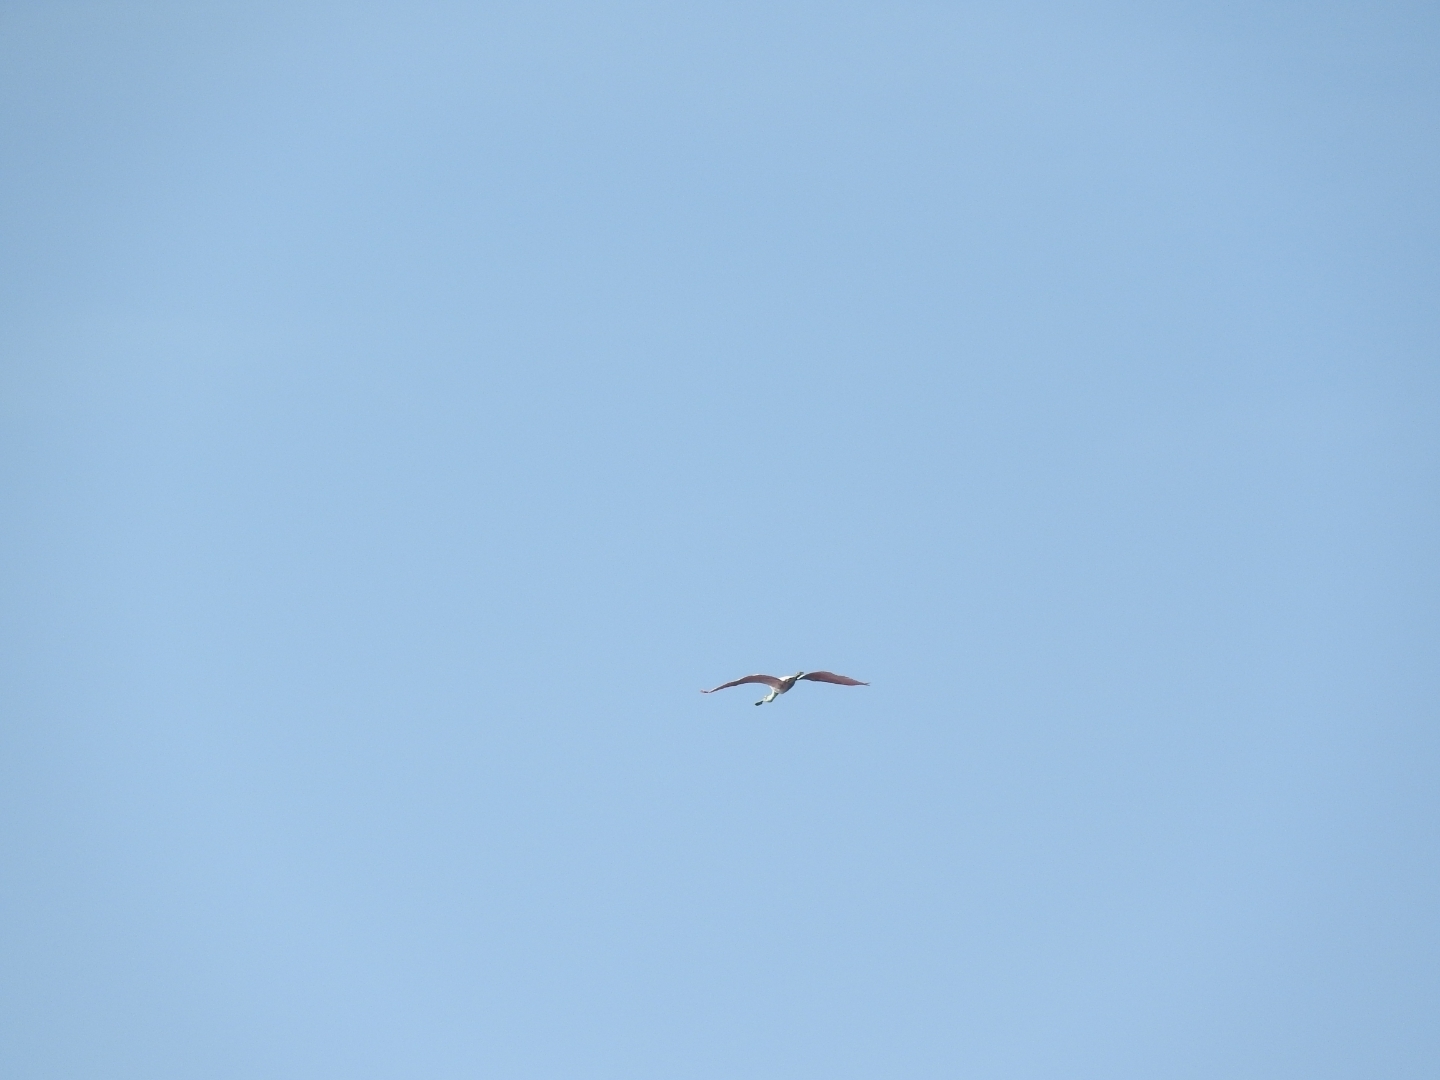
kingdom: Animalia
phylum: Chordata
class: Aves
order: Pelecaniformes
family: Threskiornithidae
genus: Platalea
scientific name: Platalea ajaja
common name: Roseate spoonbill
